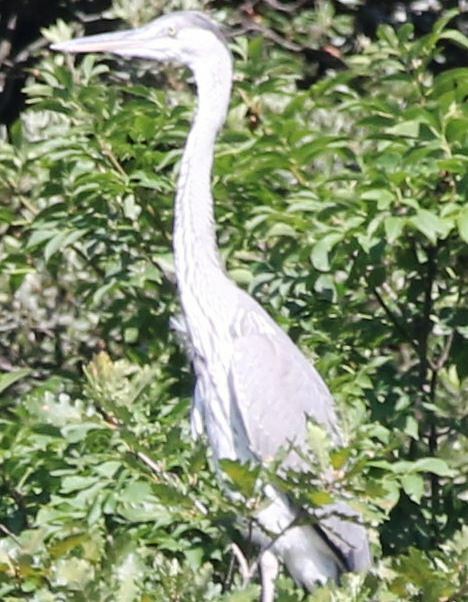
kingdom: Animalia
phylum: Chordata
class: Aves
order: Pelecaniformes
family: Ardeidae
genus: Ardea
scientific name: Ardea cinerea
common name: Grey heron
